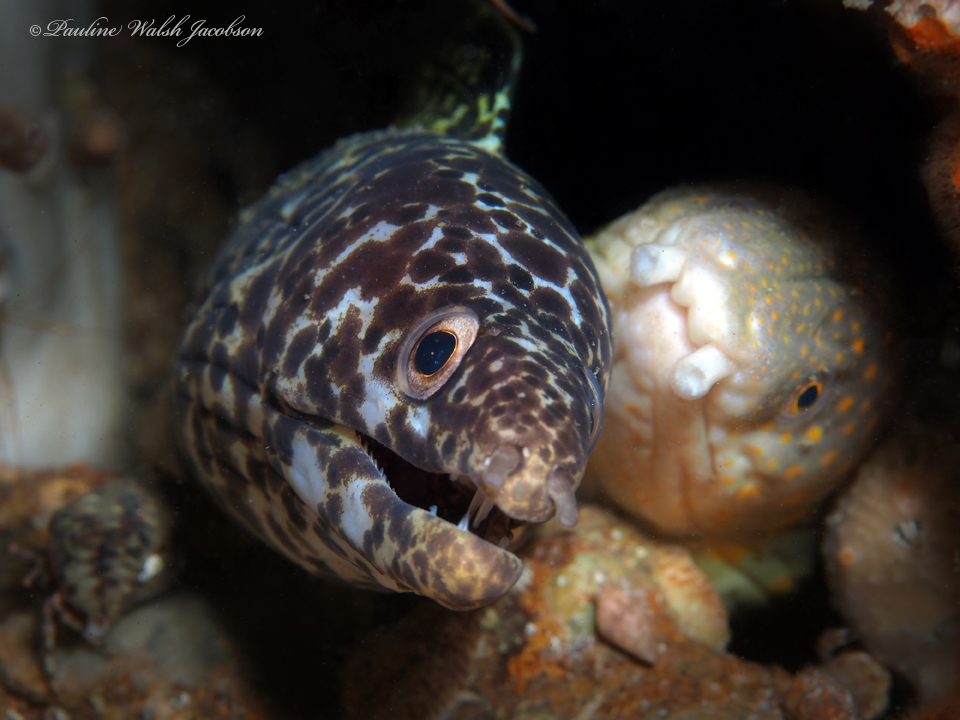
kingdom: Animalia
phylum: Chordata
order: Anguilliformes
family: Ophichthidae
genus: Myrichthys
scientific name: Myrichthys breviceps
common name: Sharptail eel
